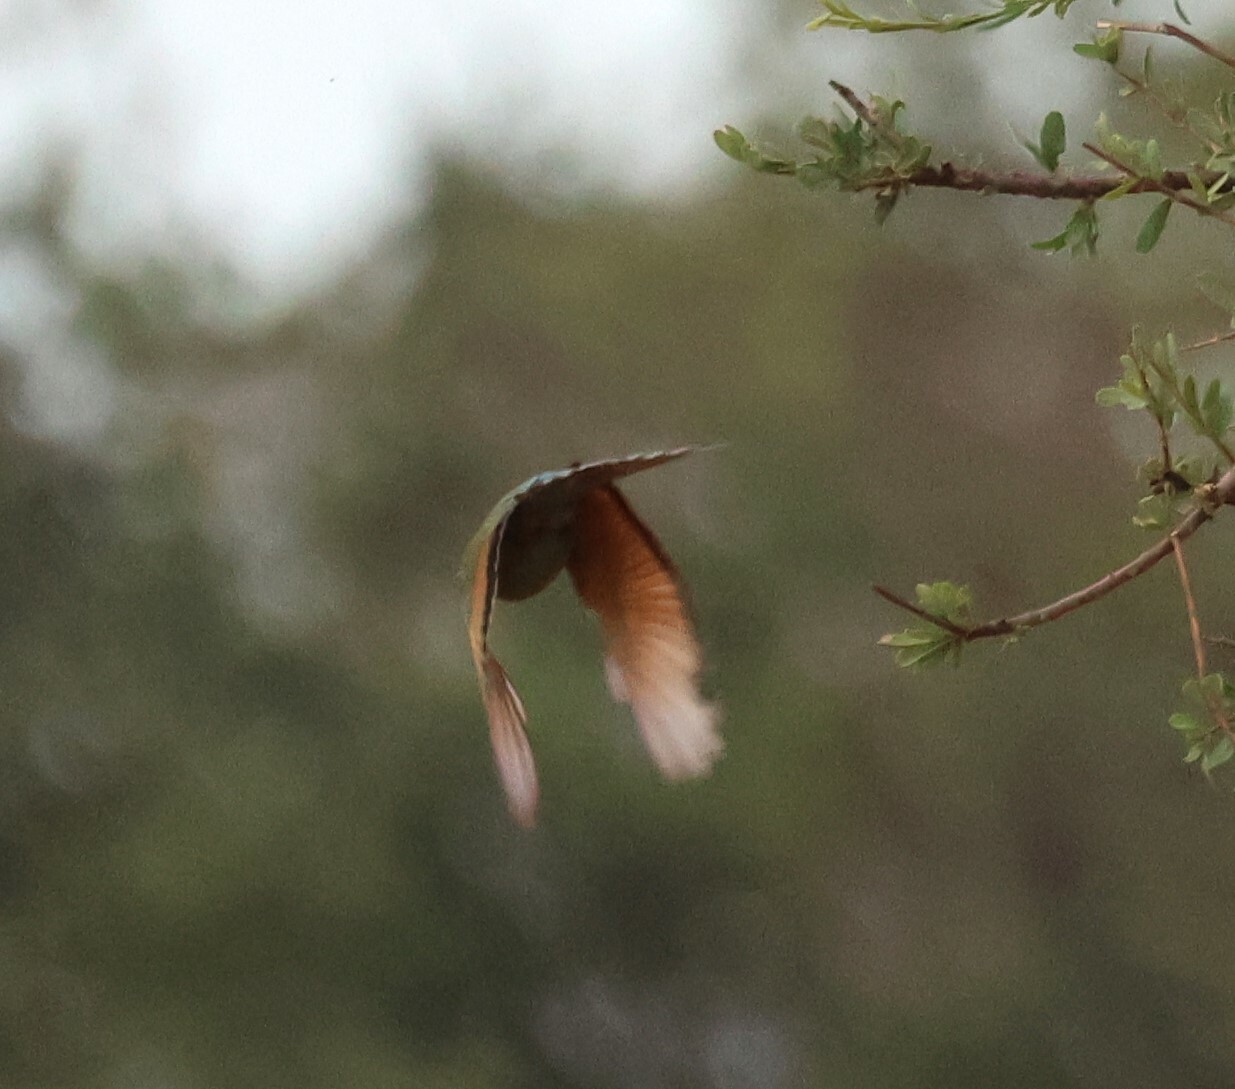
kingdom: Animalia
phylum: Chordata
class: Aves
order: Coraciiformes
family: Meropidae
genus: Merops
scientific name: Merops hirundineus
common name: Swallow-tailed bee-eater
